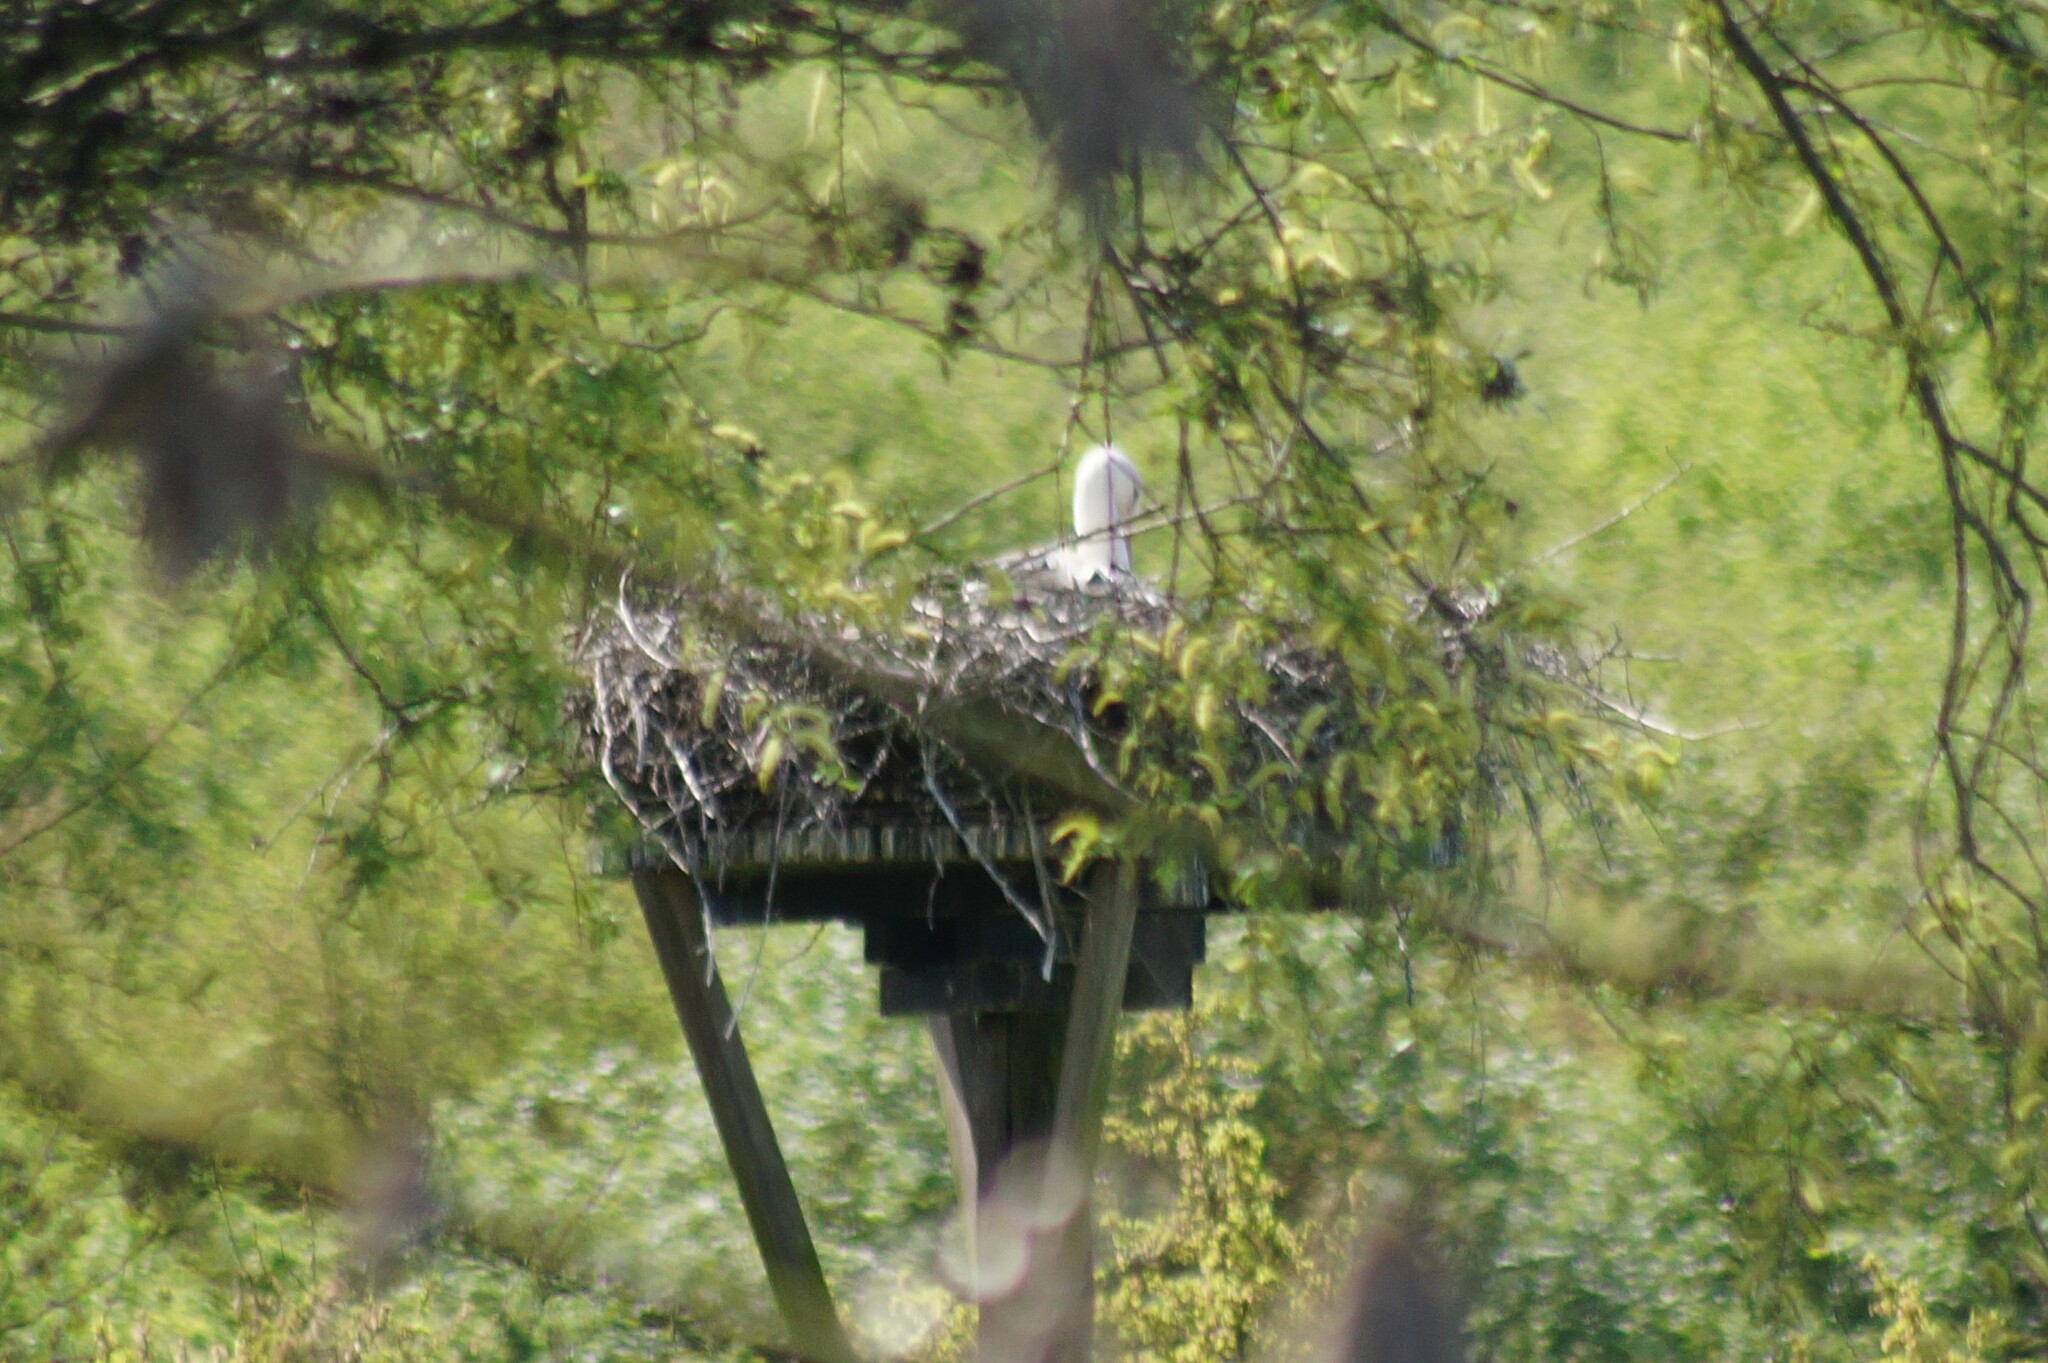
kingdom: Animalia
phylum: Chordata
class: Aves
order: Ciconiiformes
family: Ciconiidae
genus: Ciconia
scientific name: Ciconia ciconia
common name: White stork
